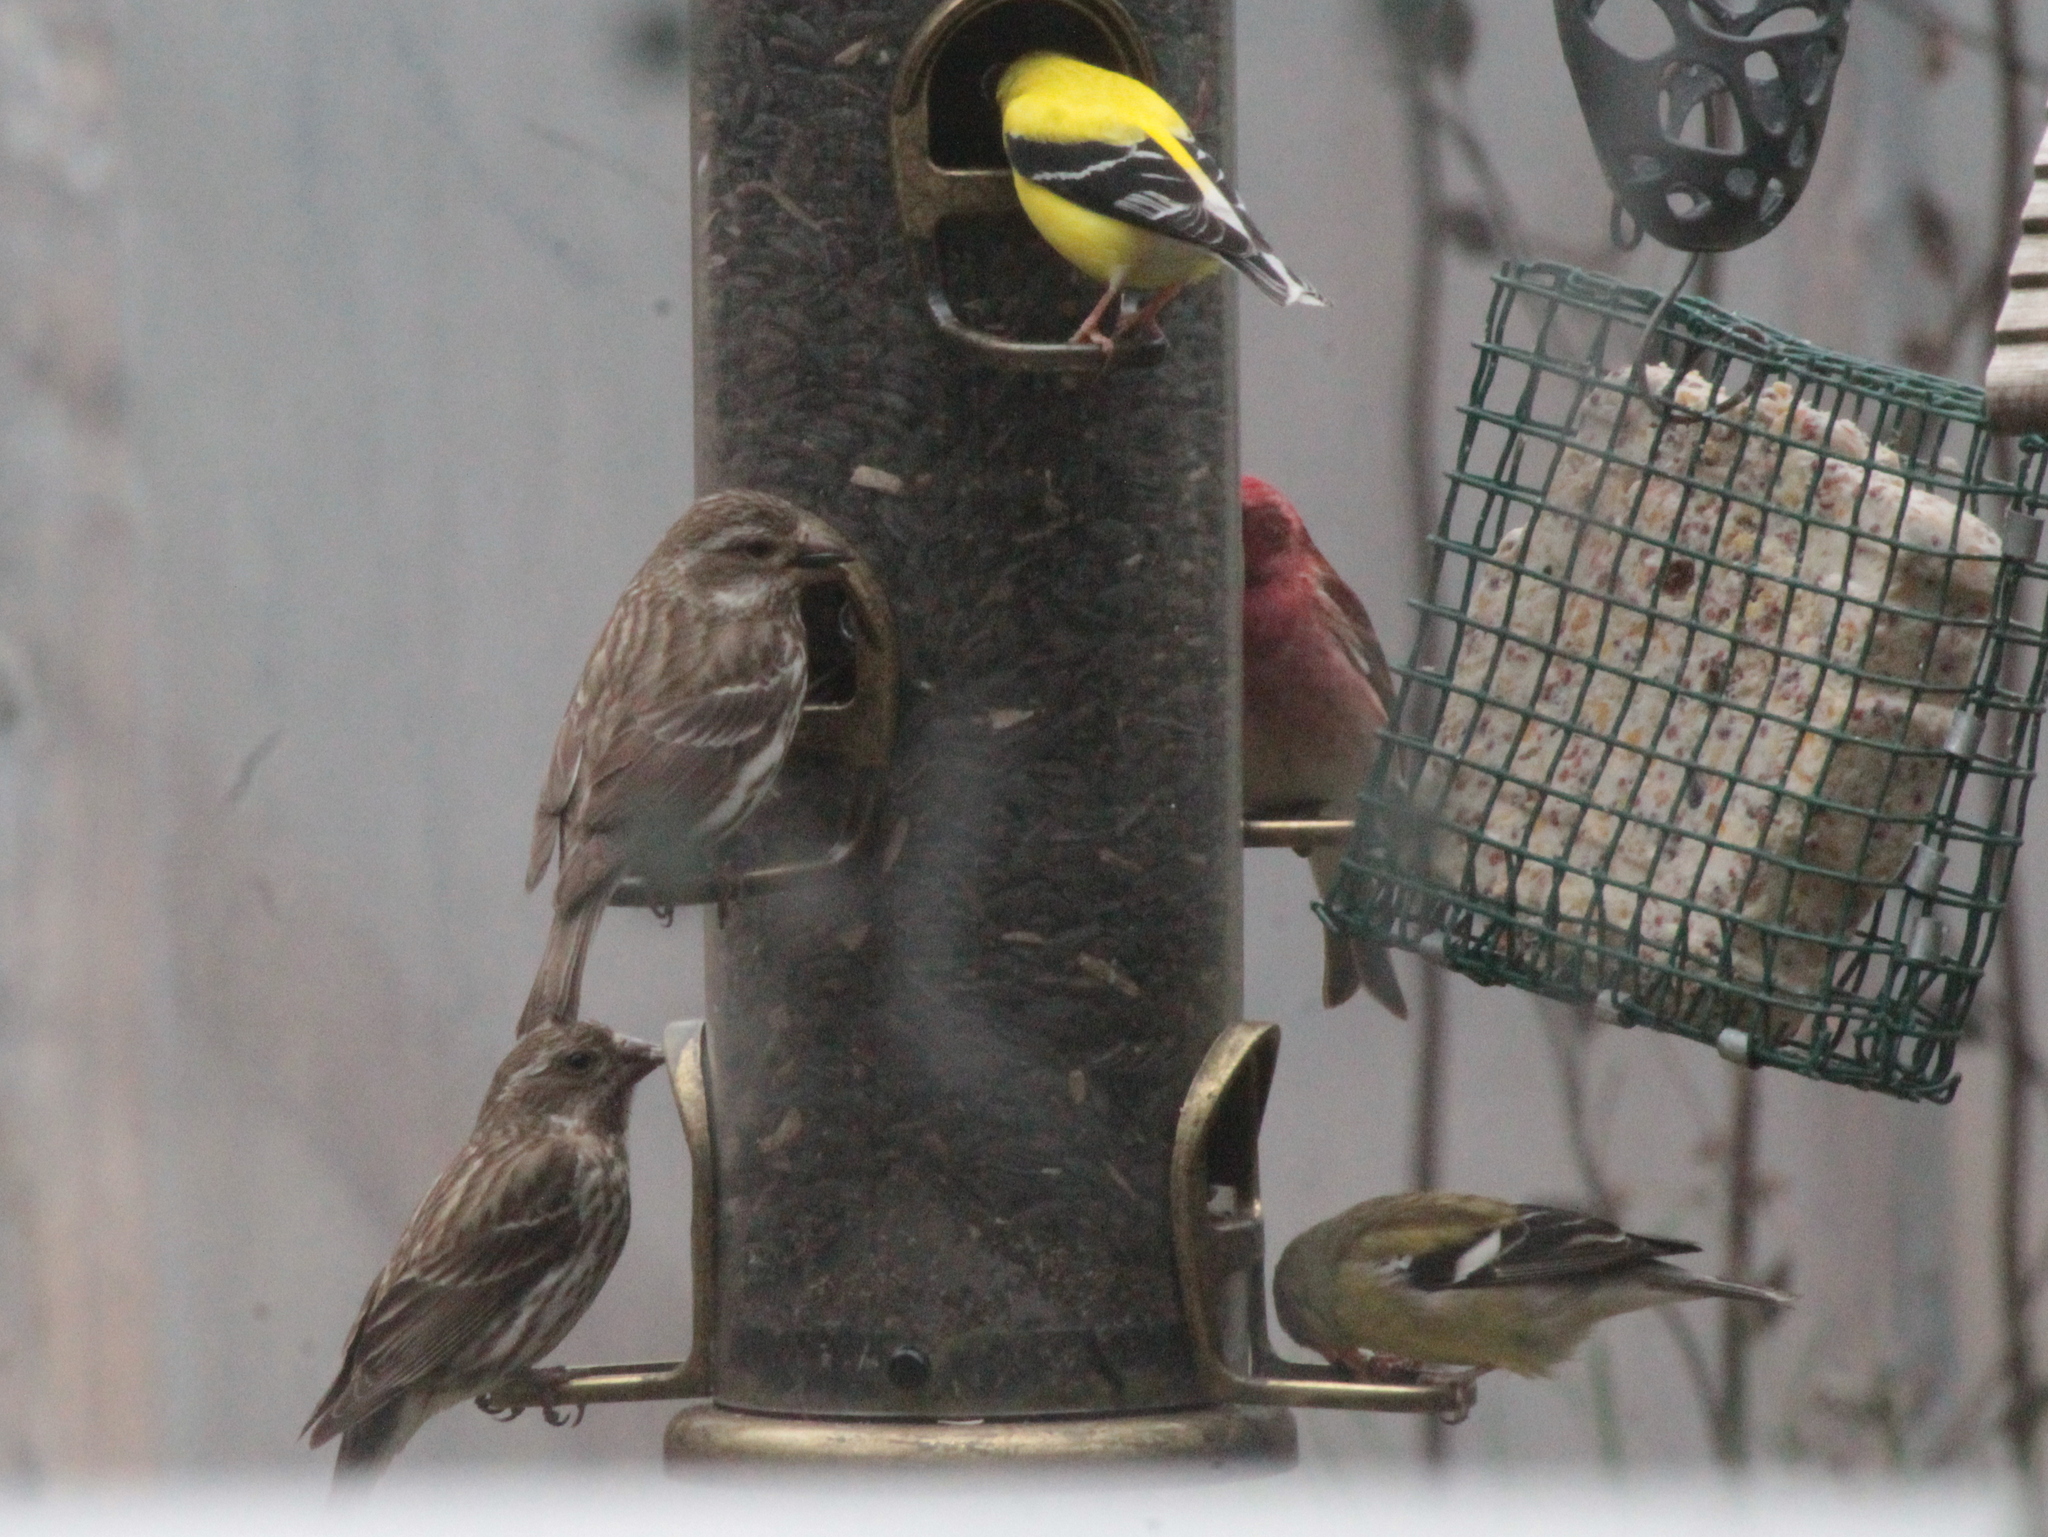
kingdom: Animalia
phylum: Chordata
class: Aves
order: Passeriformes
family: Fringillidae
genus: Spinus
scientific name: Spinus tristis
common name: American goldfinch
